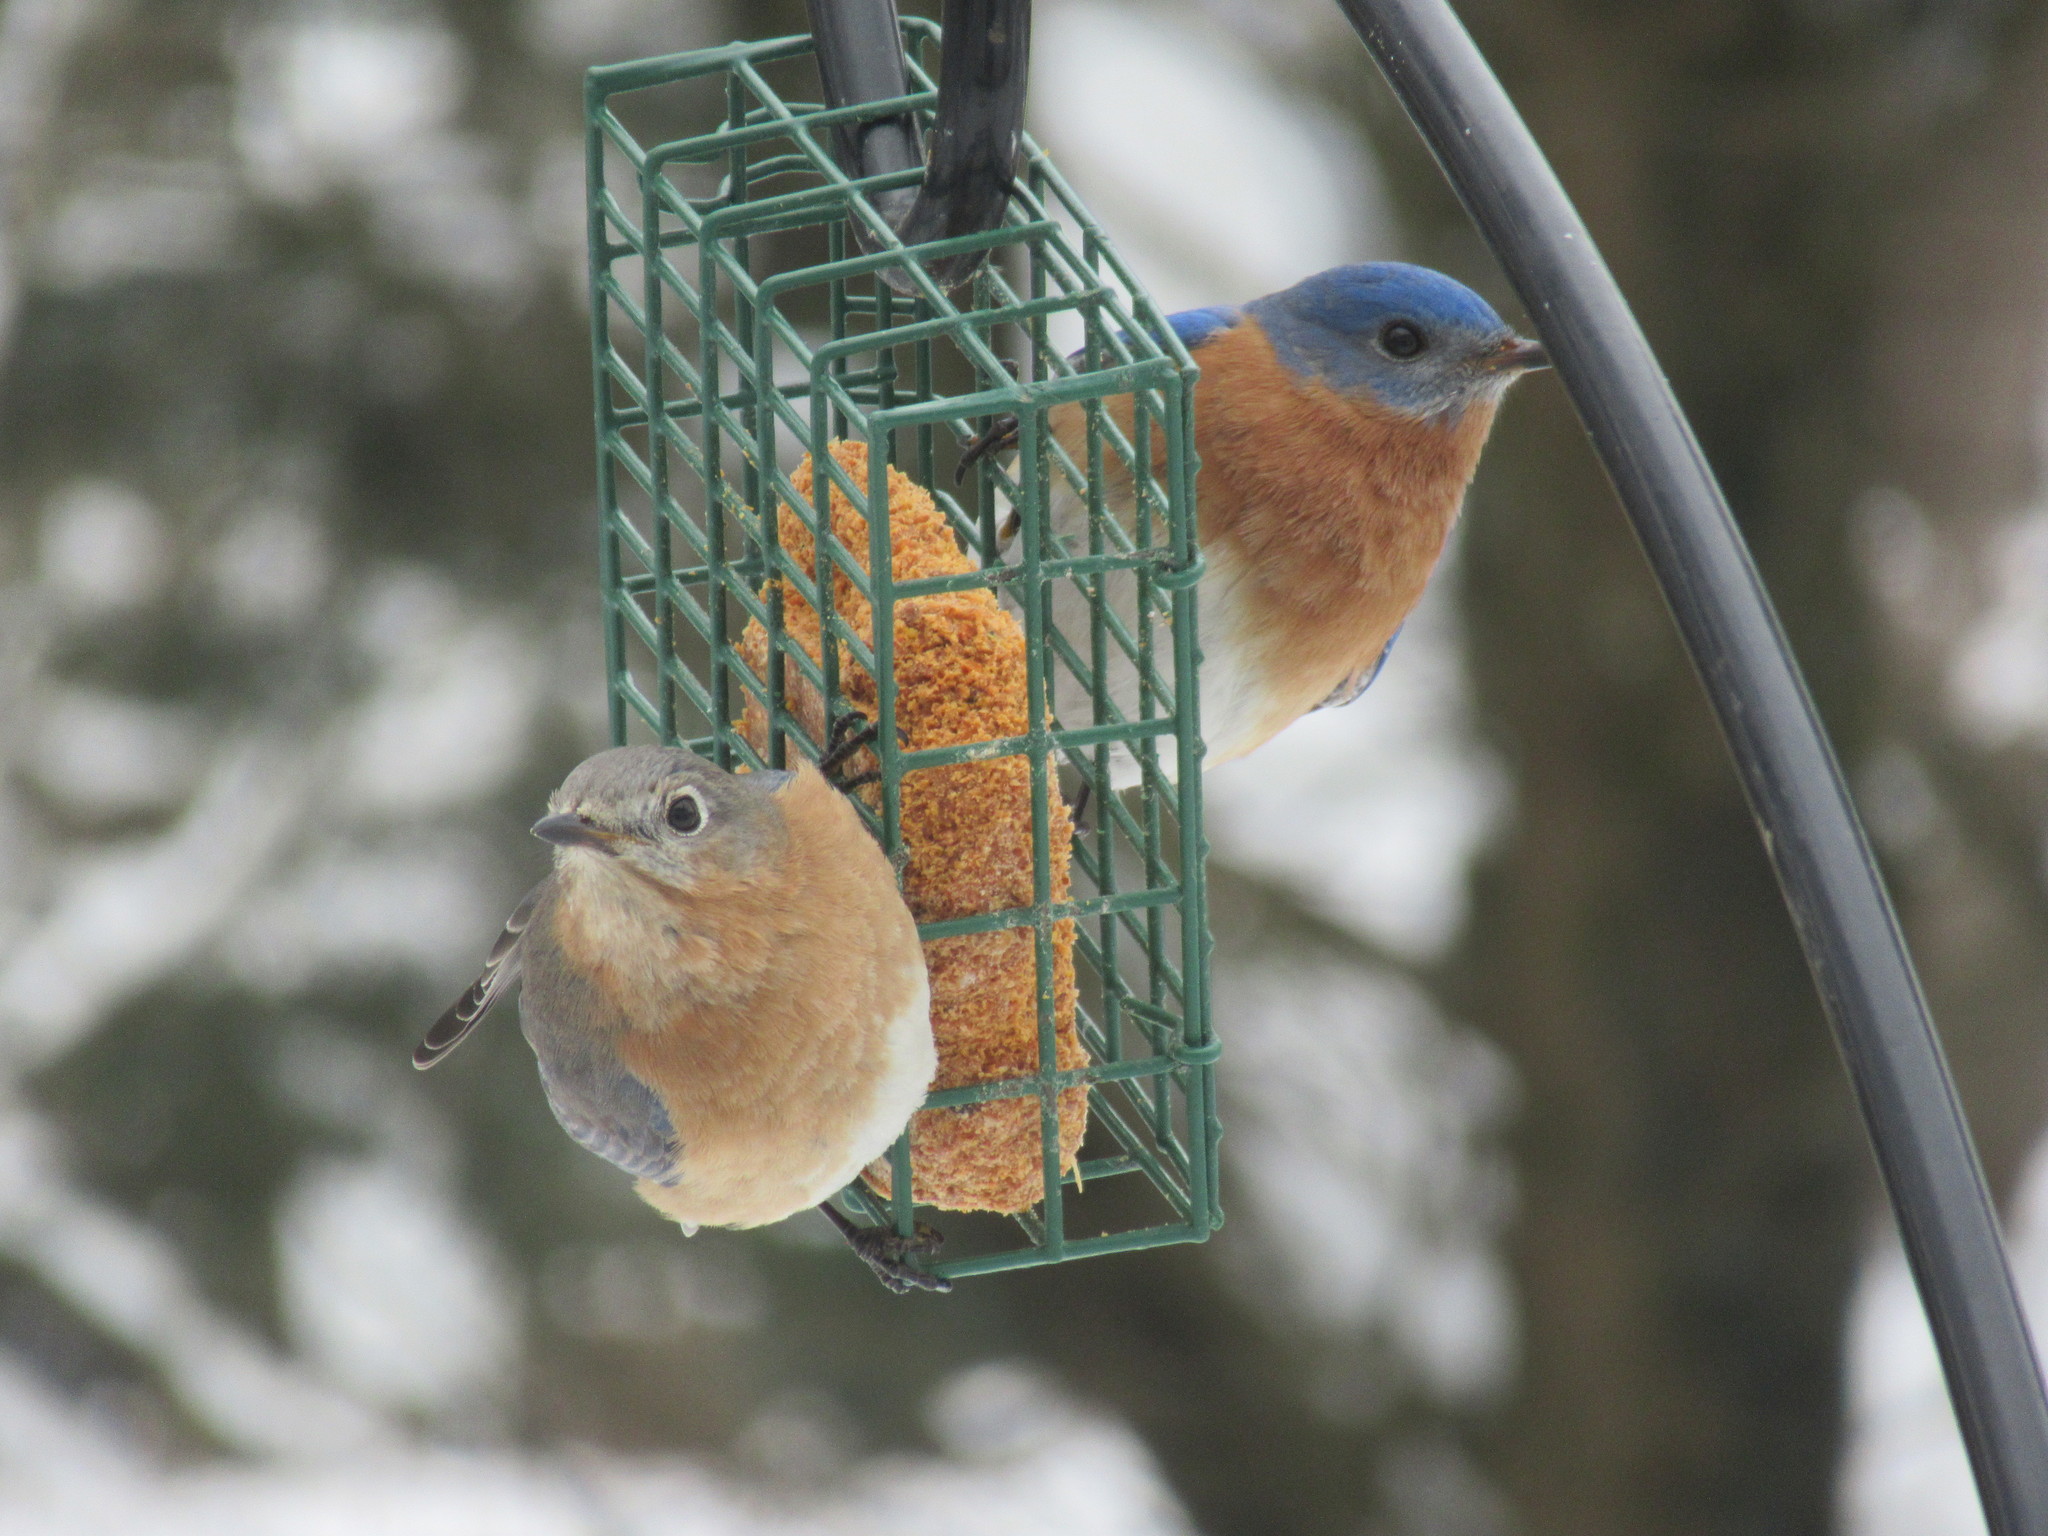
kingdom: Animalia
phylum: Chordata
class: Aves
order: Passeriformes
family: Turdidae
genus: Sialia
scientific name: Sialia sialis
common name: Eastern bluebird
